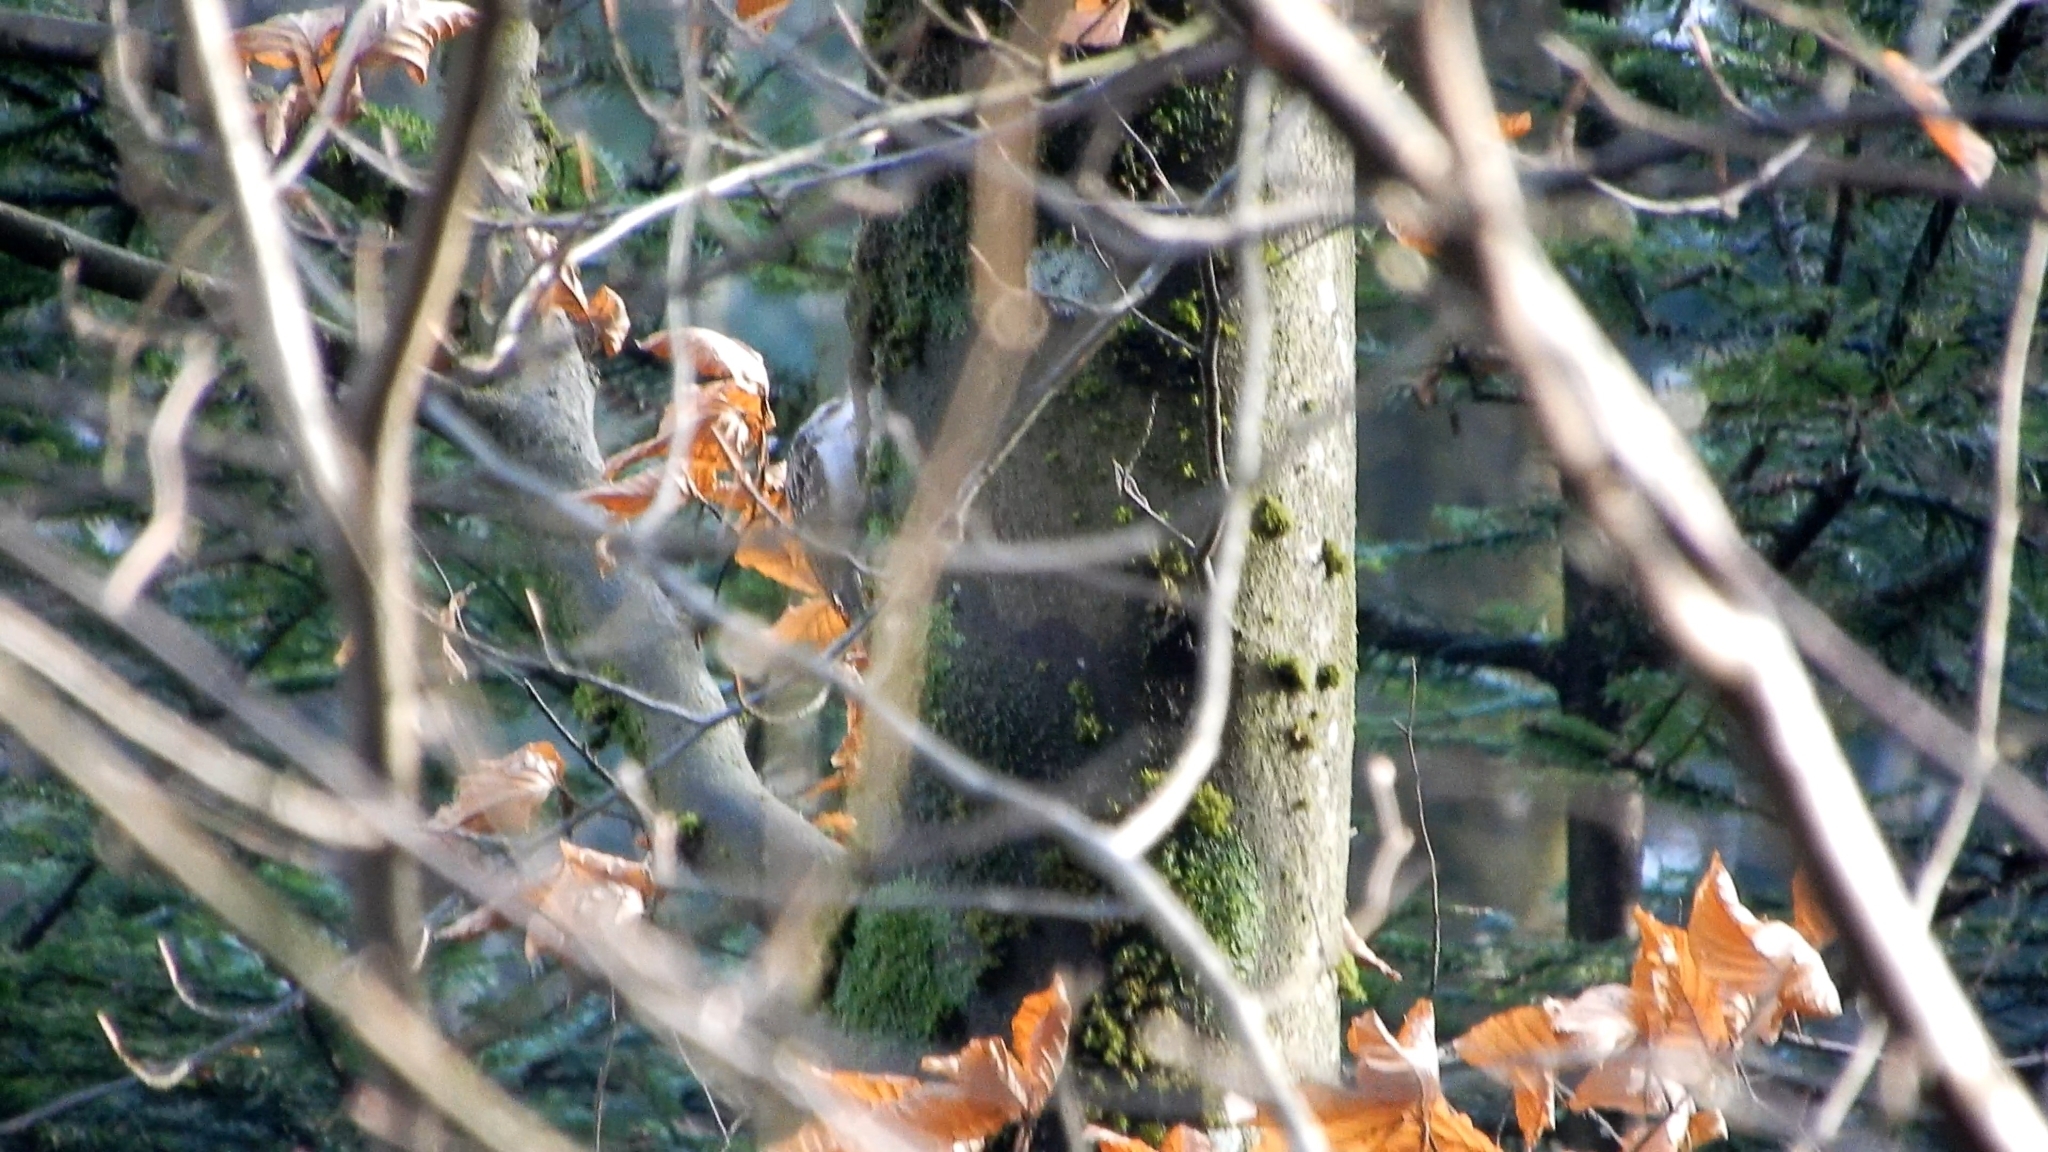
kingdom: Animalia
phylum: Chordata
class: Aves
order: Passeriformes
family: Certhiidae
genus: Certhia
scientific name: Certhia
